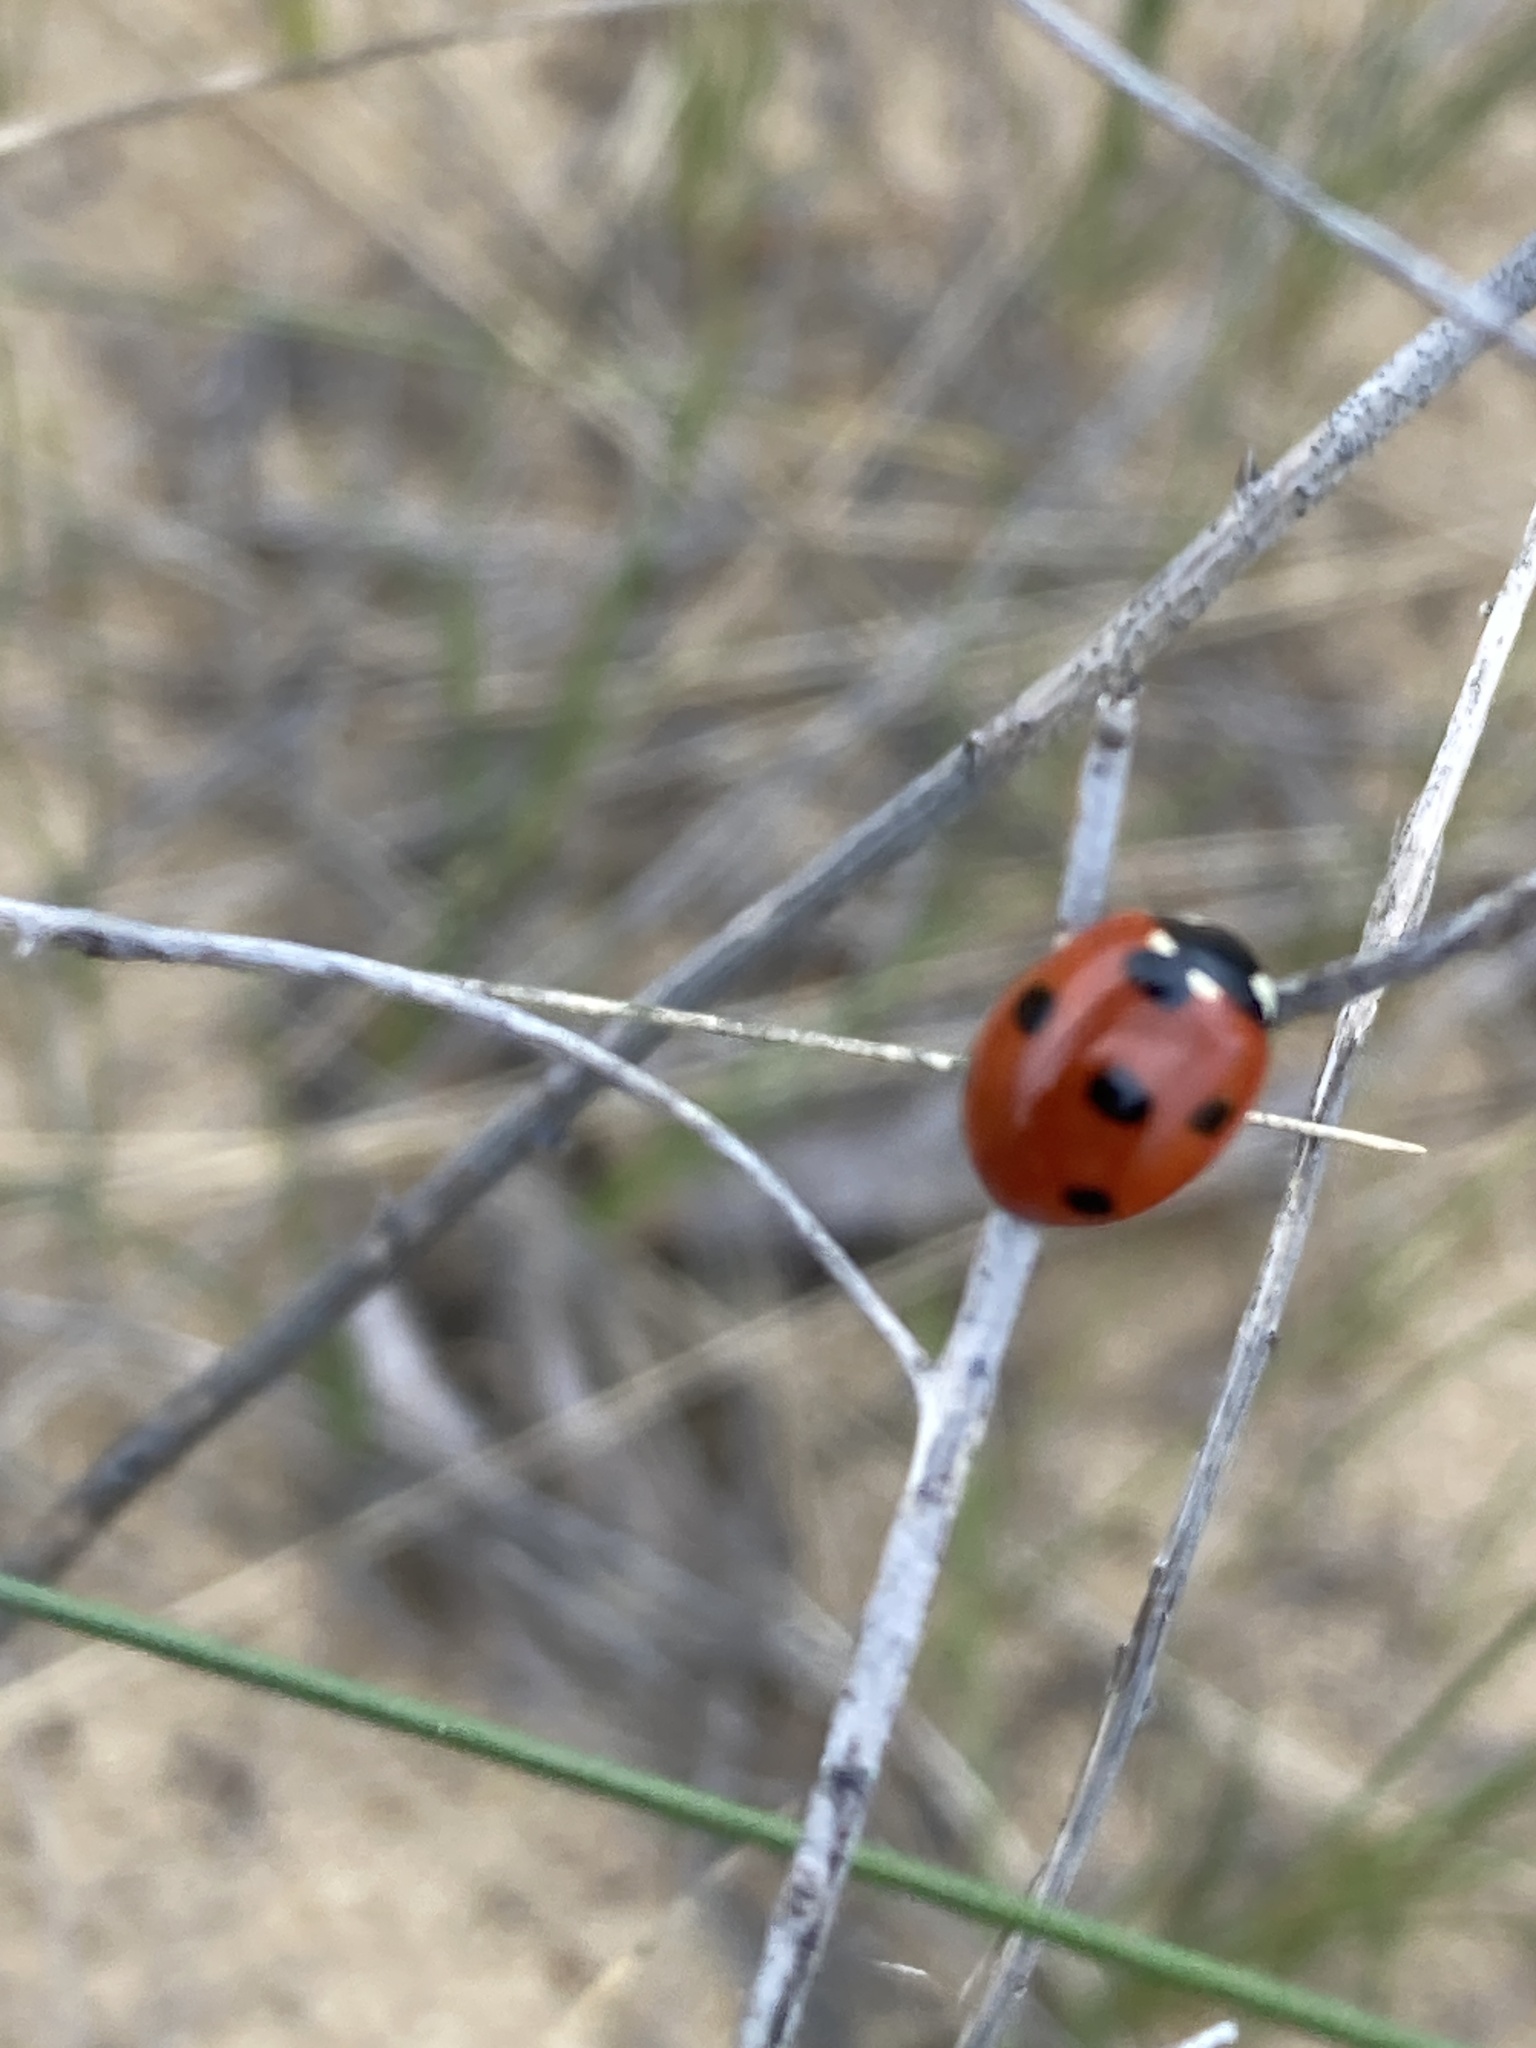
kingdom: Animalia
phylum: Arthropoda
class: Insecta
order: Coleoptera
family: Coccinellidae
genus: Coccinella
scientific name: Coccinella septempunctata
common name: Sevenspotted lady beetle
